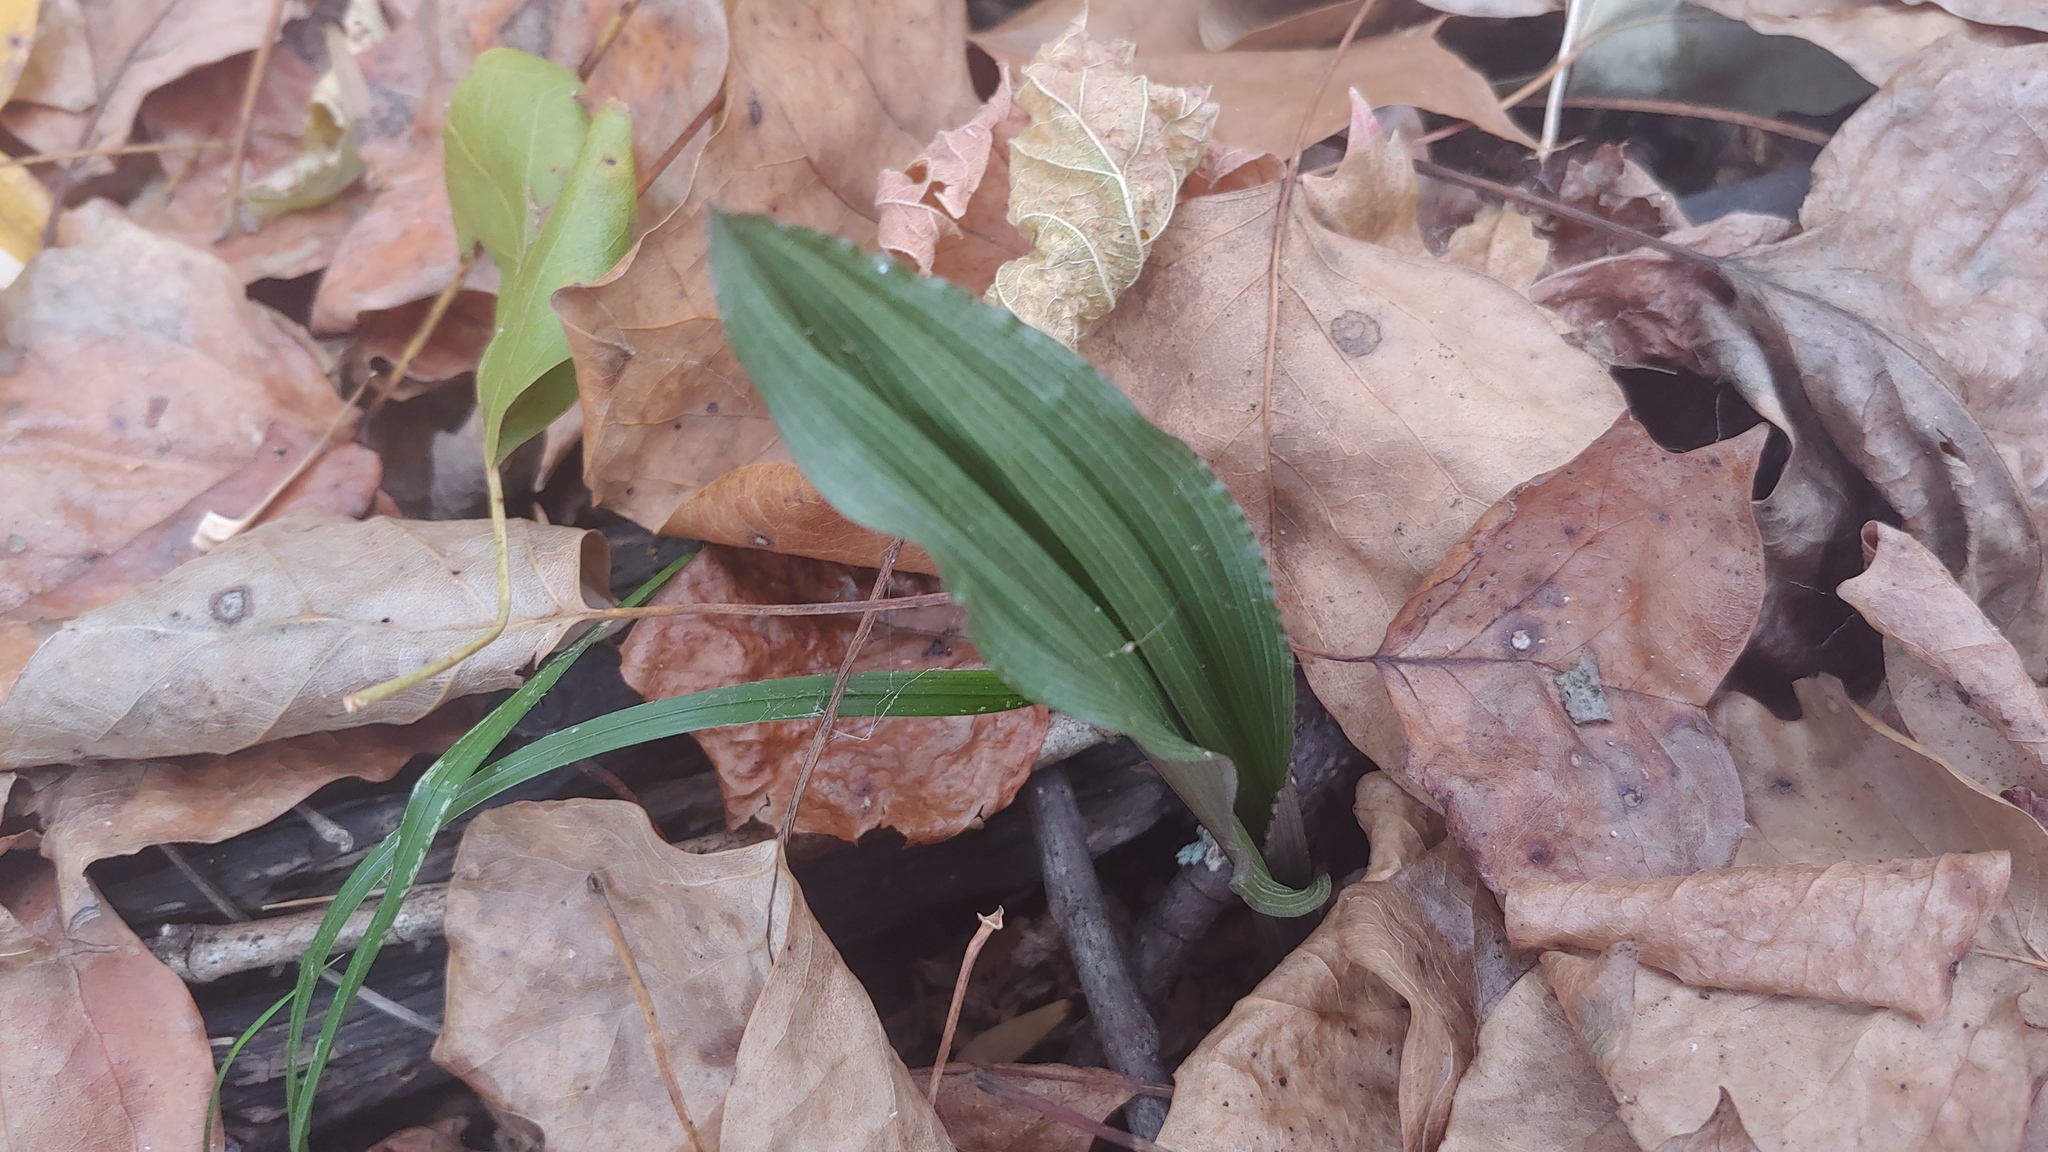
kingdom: Plantae
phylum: Tracheophyta
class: Liliopsida
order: Asparagales
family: Orchidaceae
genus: Aplectrum
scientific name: Aplectrum hyemale
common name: Adam-and-eve
